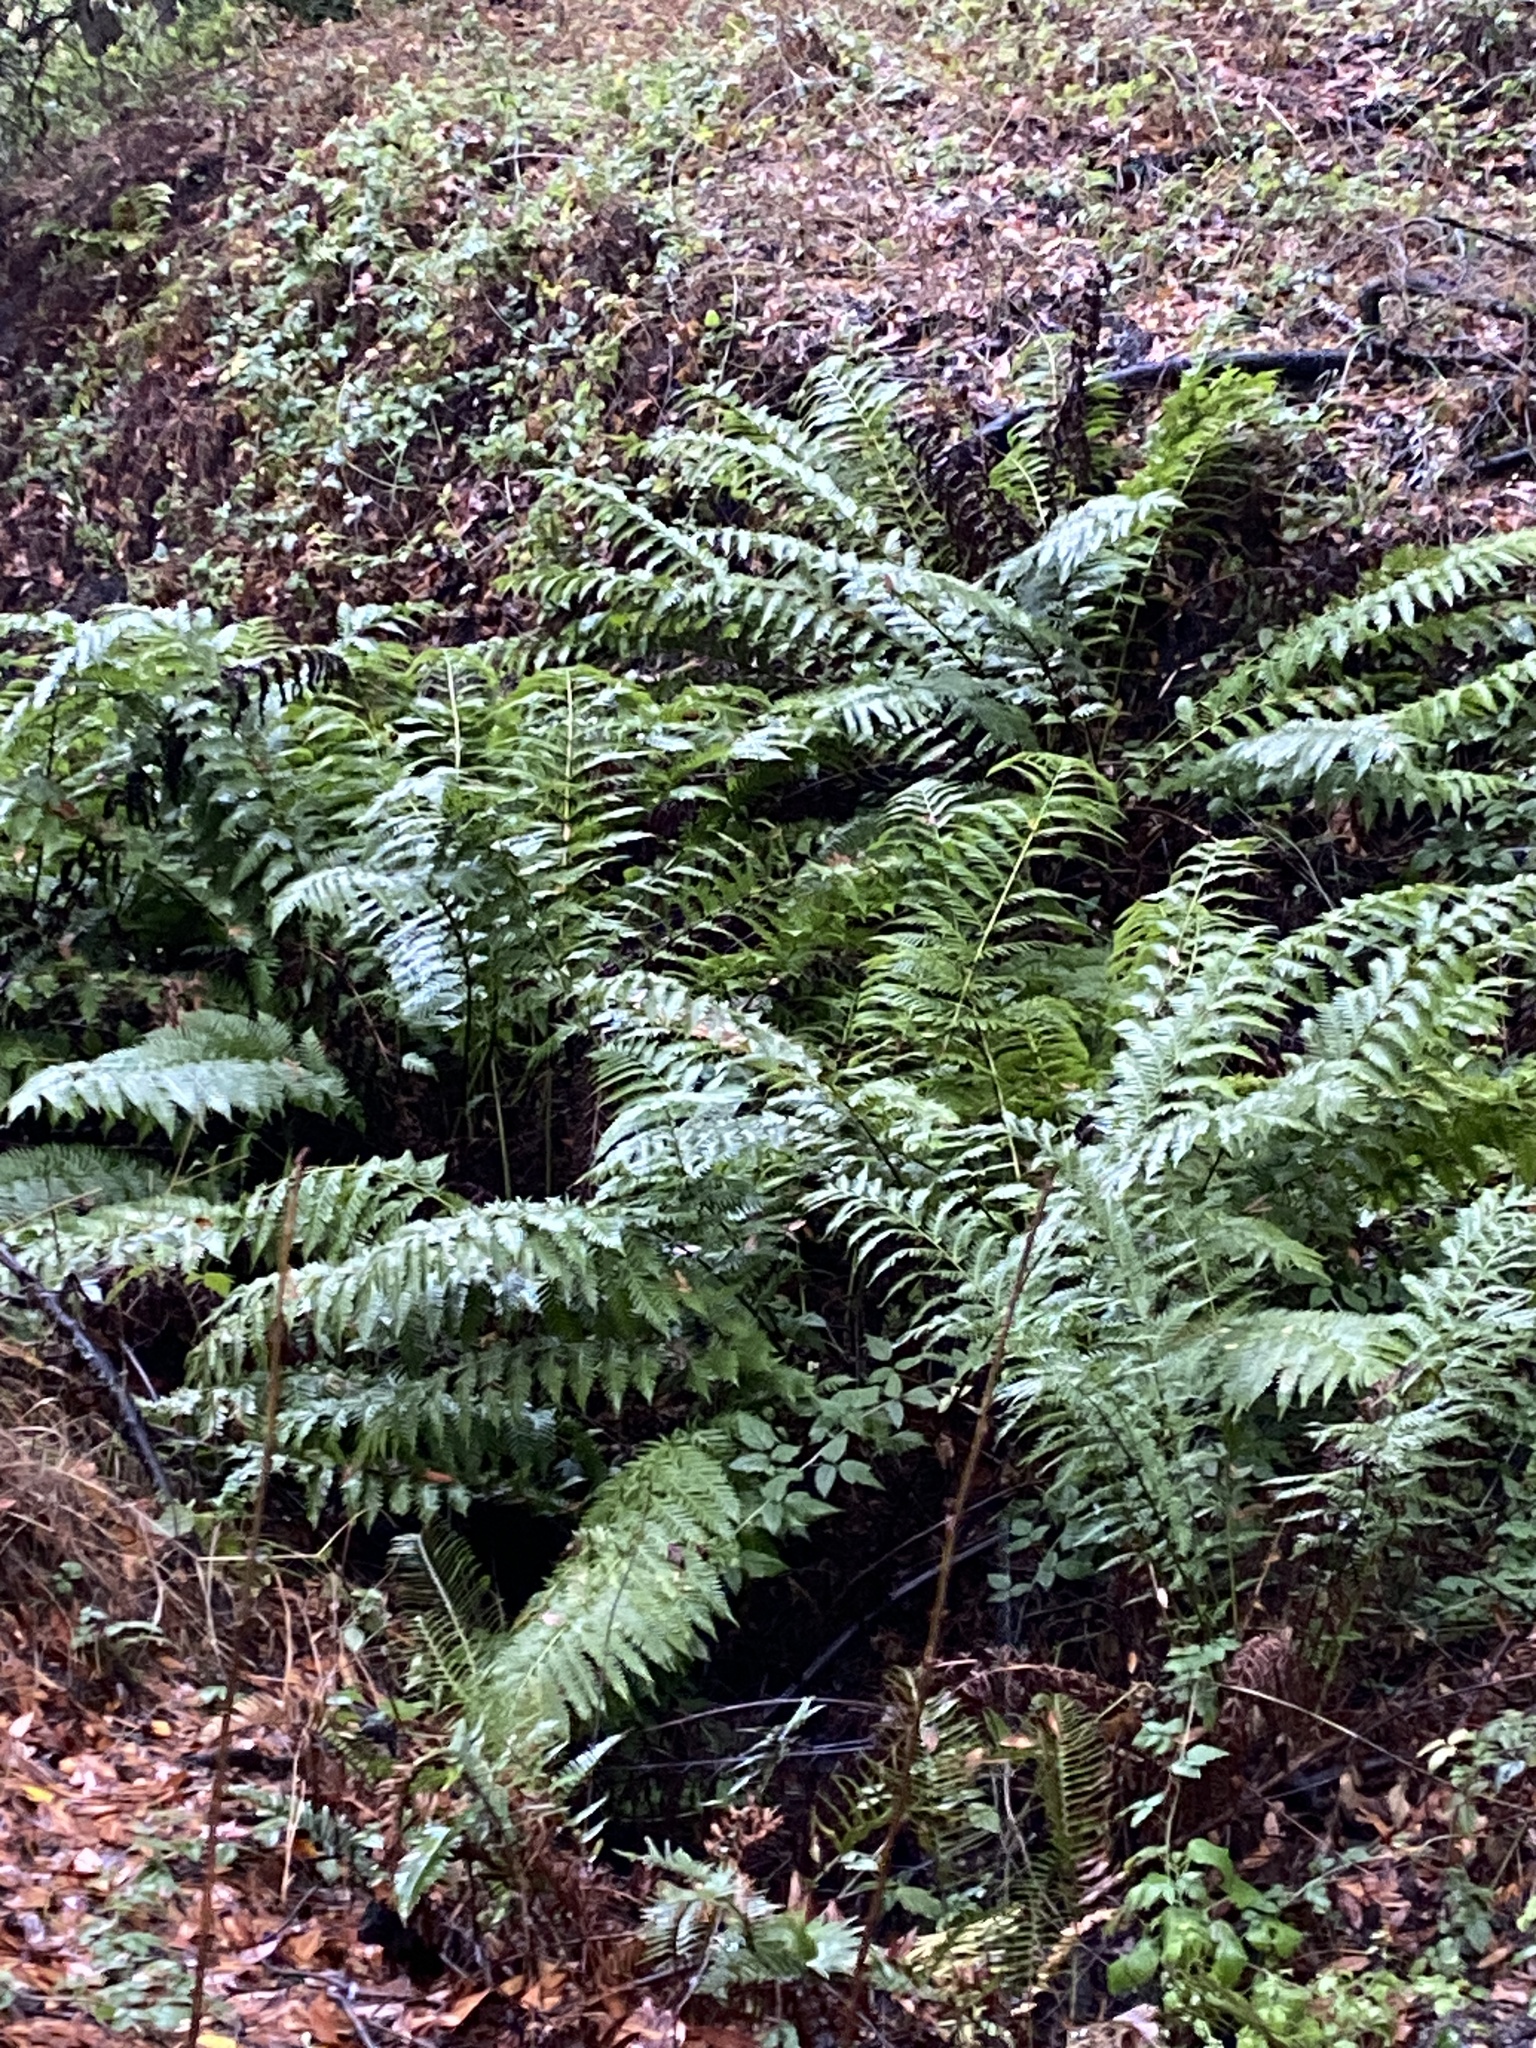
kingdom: Plantae
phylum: Tracheophyta
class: Polypodiopsida
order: Polypodiales
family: Blechnaceae
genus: Woodwardia
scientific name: Woodwardia fimbriata
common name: Giant chain fern
